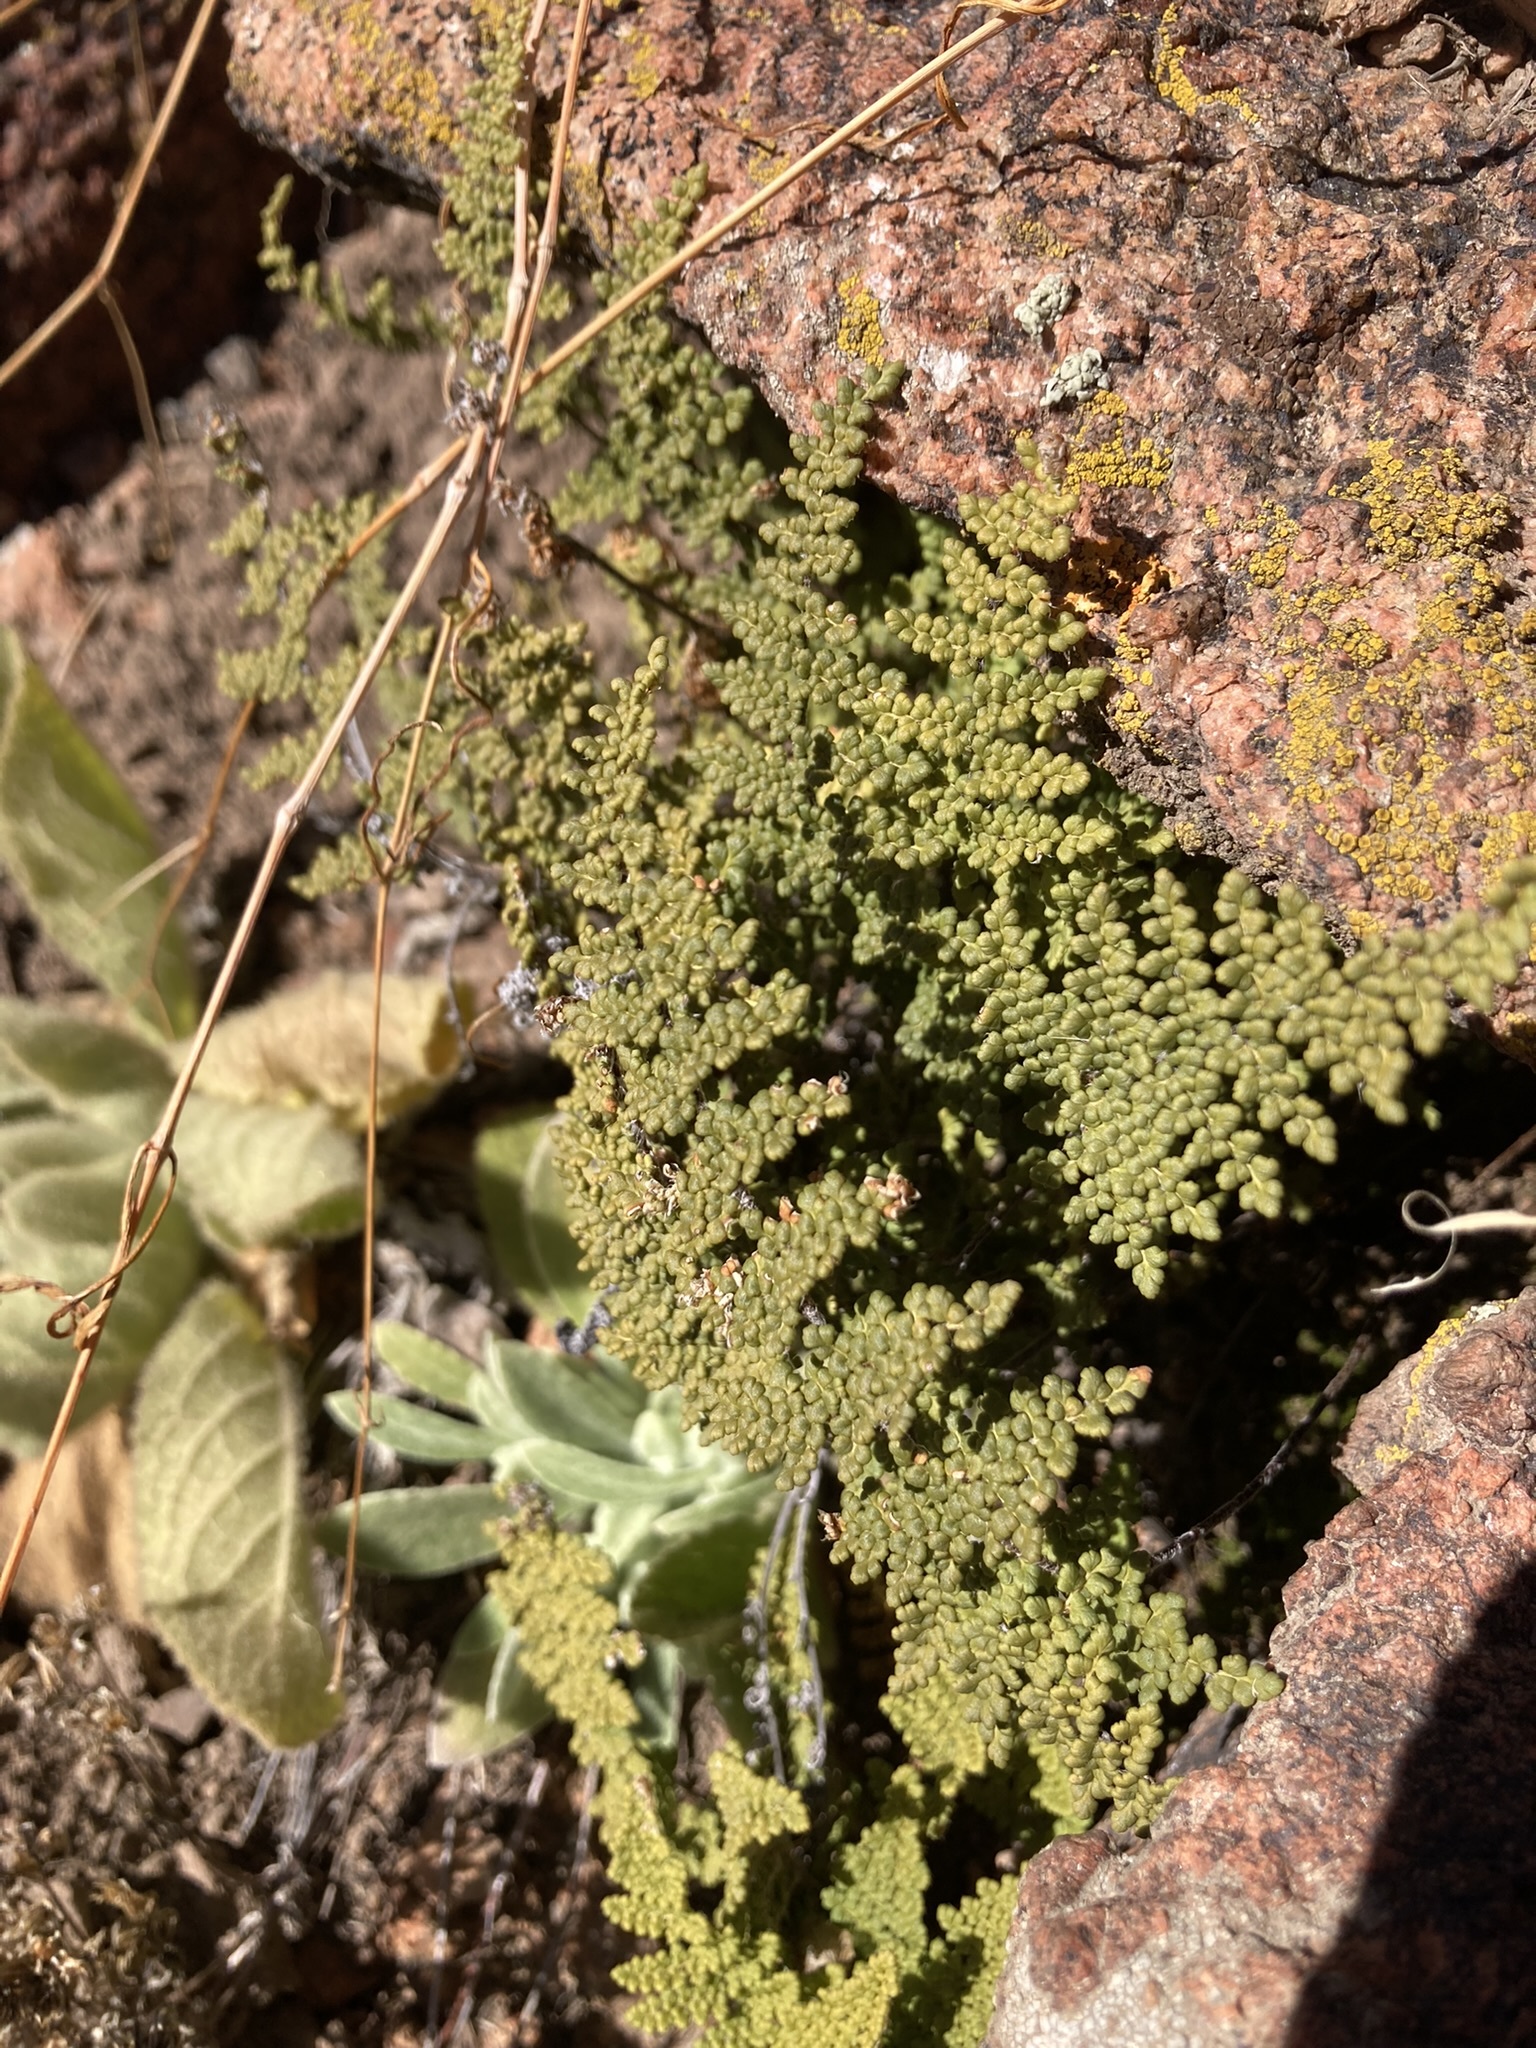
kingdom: Plantae
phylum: Tracheophyta
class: Polypodiopsida
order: Polypodiales
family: Pteridaceae
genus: Myriopteris
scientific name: Myriopteris fendleri
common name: Fendler's lip fern
